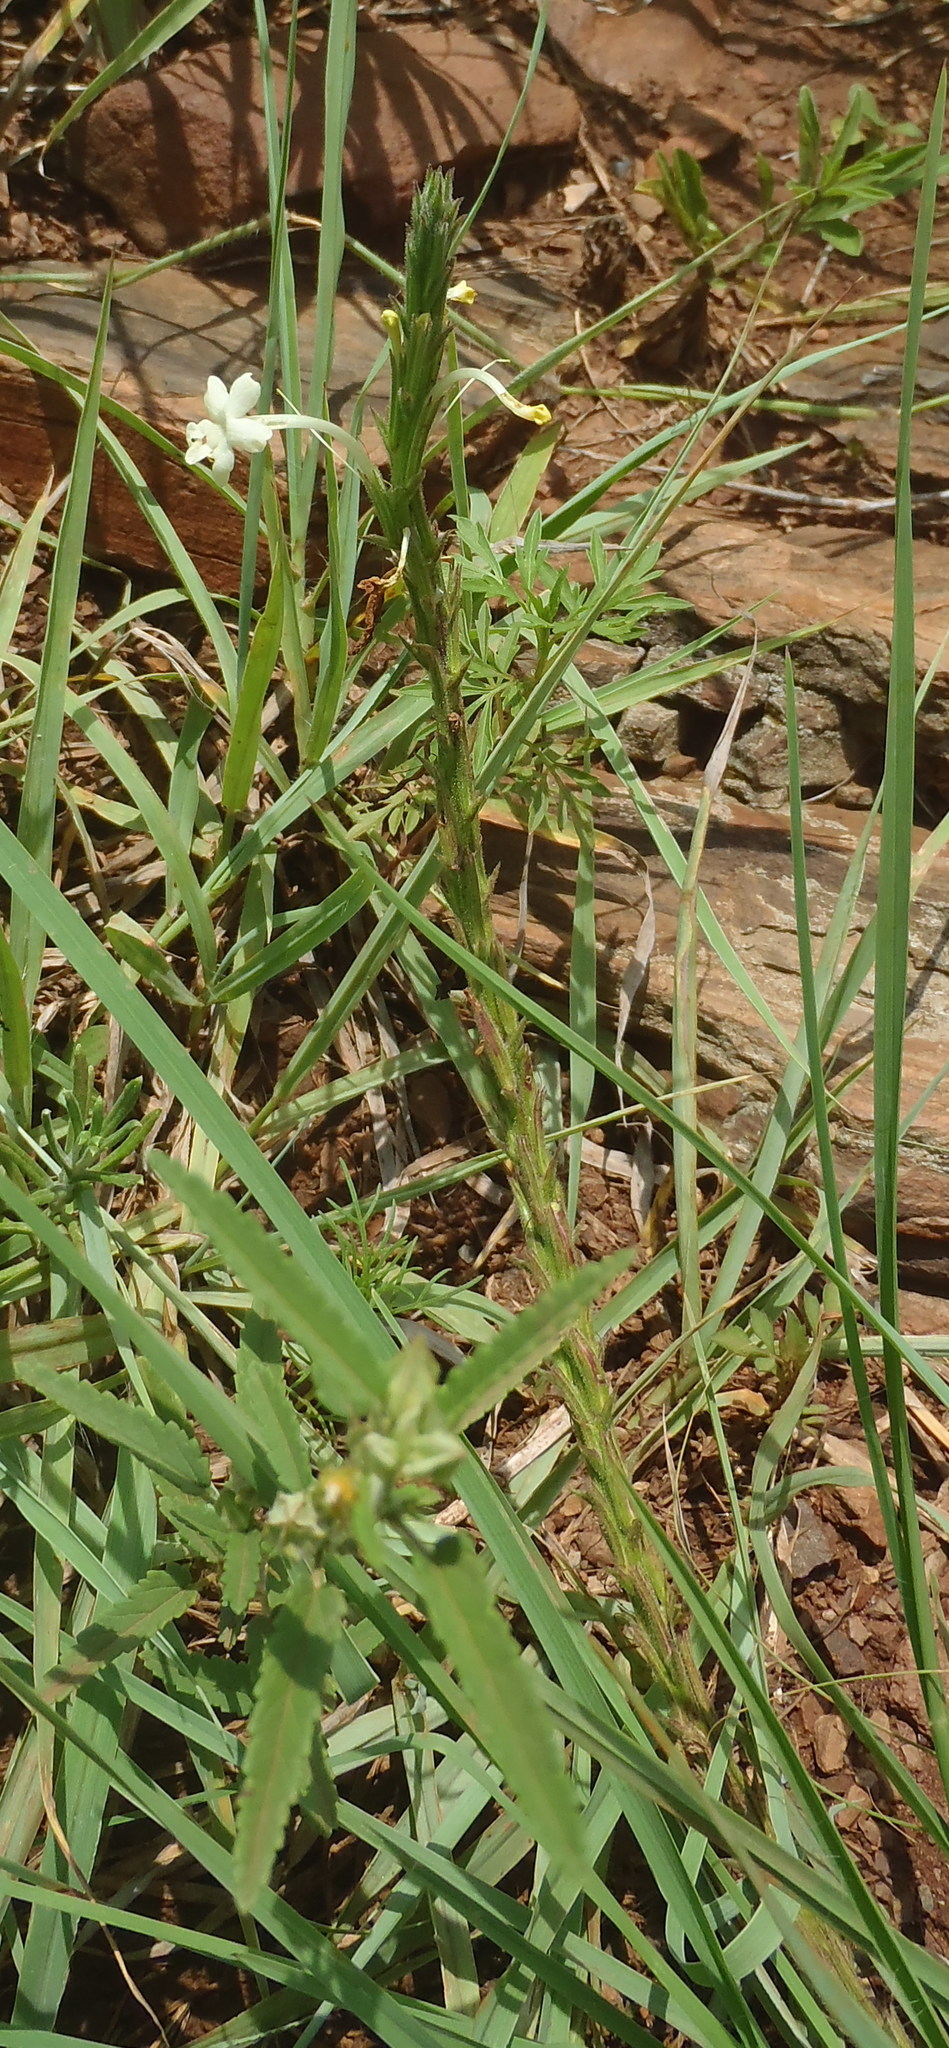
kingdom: Plantae
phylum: Tracheophyta
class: Magnoliopsida
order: Lamiales
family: Verbenaceae
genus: Chascanum
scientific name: Chascanum hederaceum
